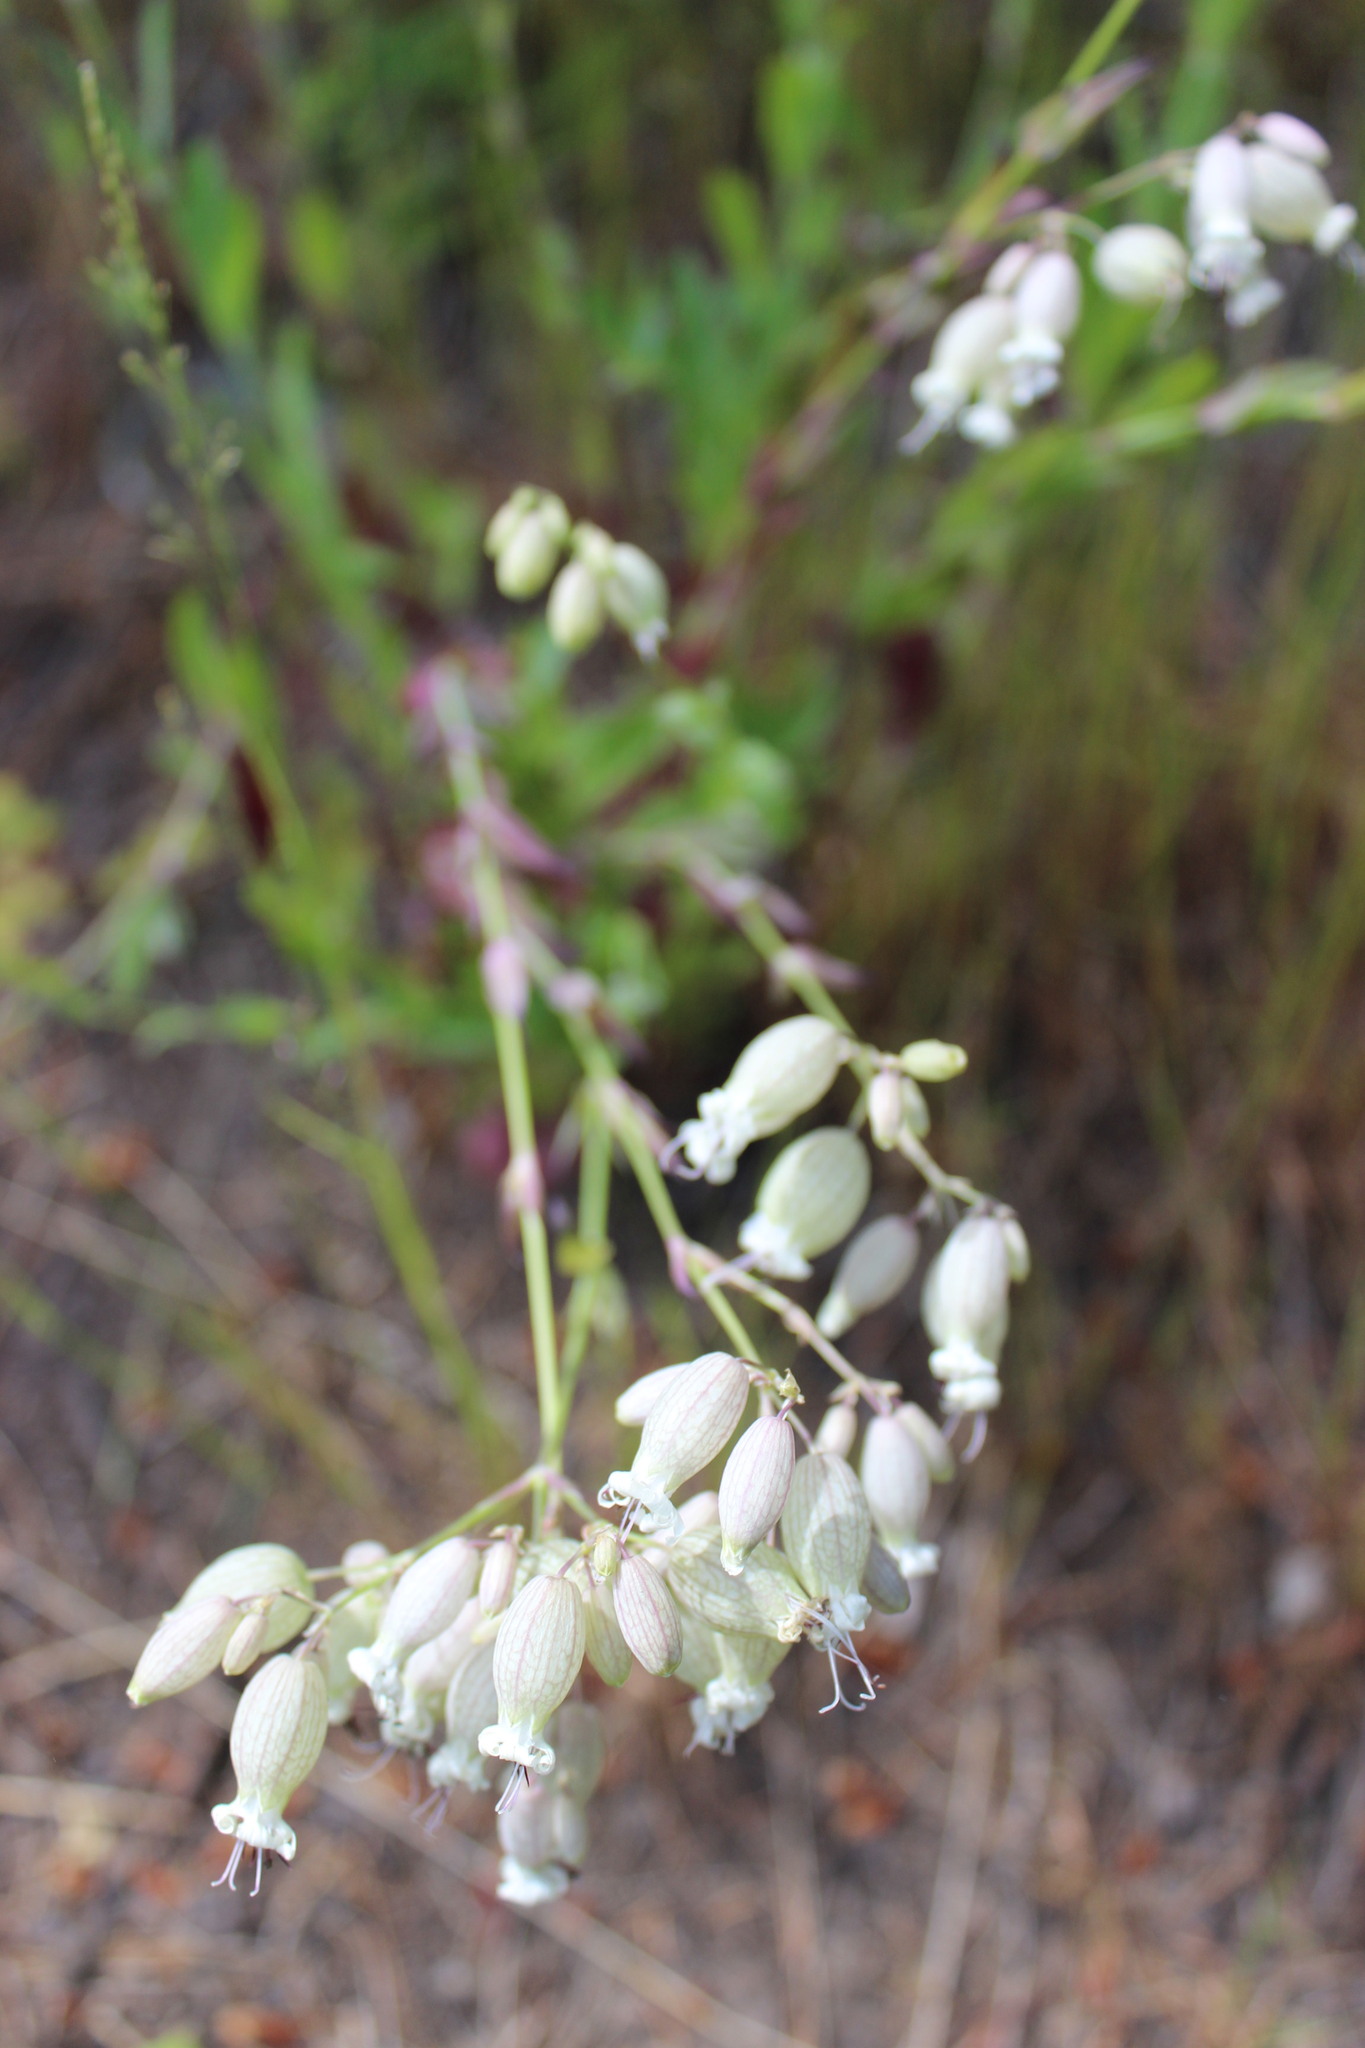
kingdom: Plantae
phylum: Tracheophyta
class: Magnoliopsida
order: Caryophyllales
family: Caryophyllaceae
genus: Silene
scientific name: Silene vulgaris
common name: Bladder campion
